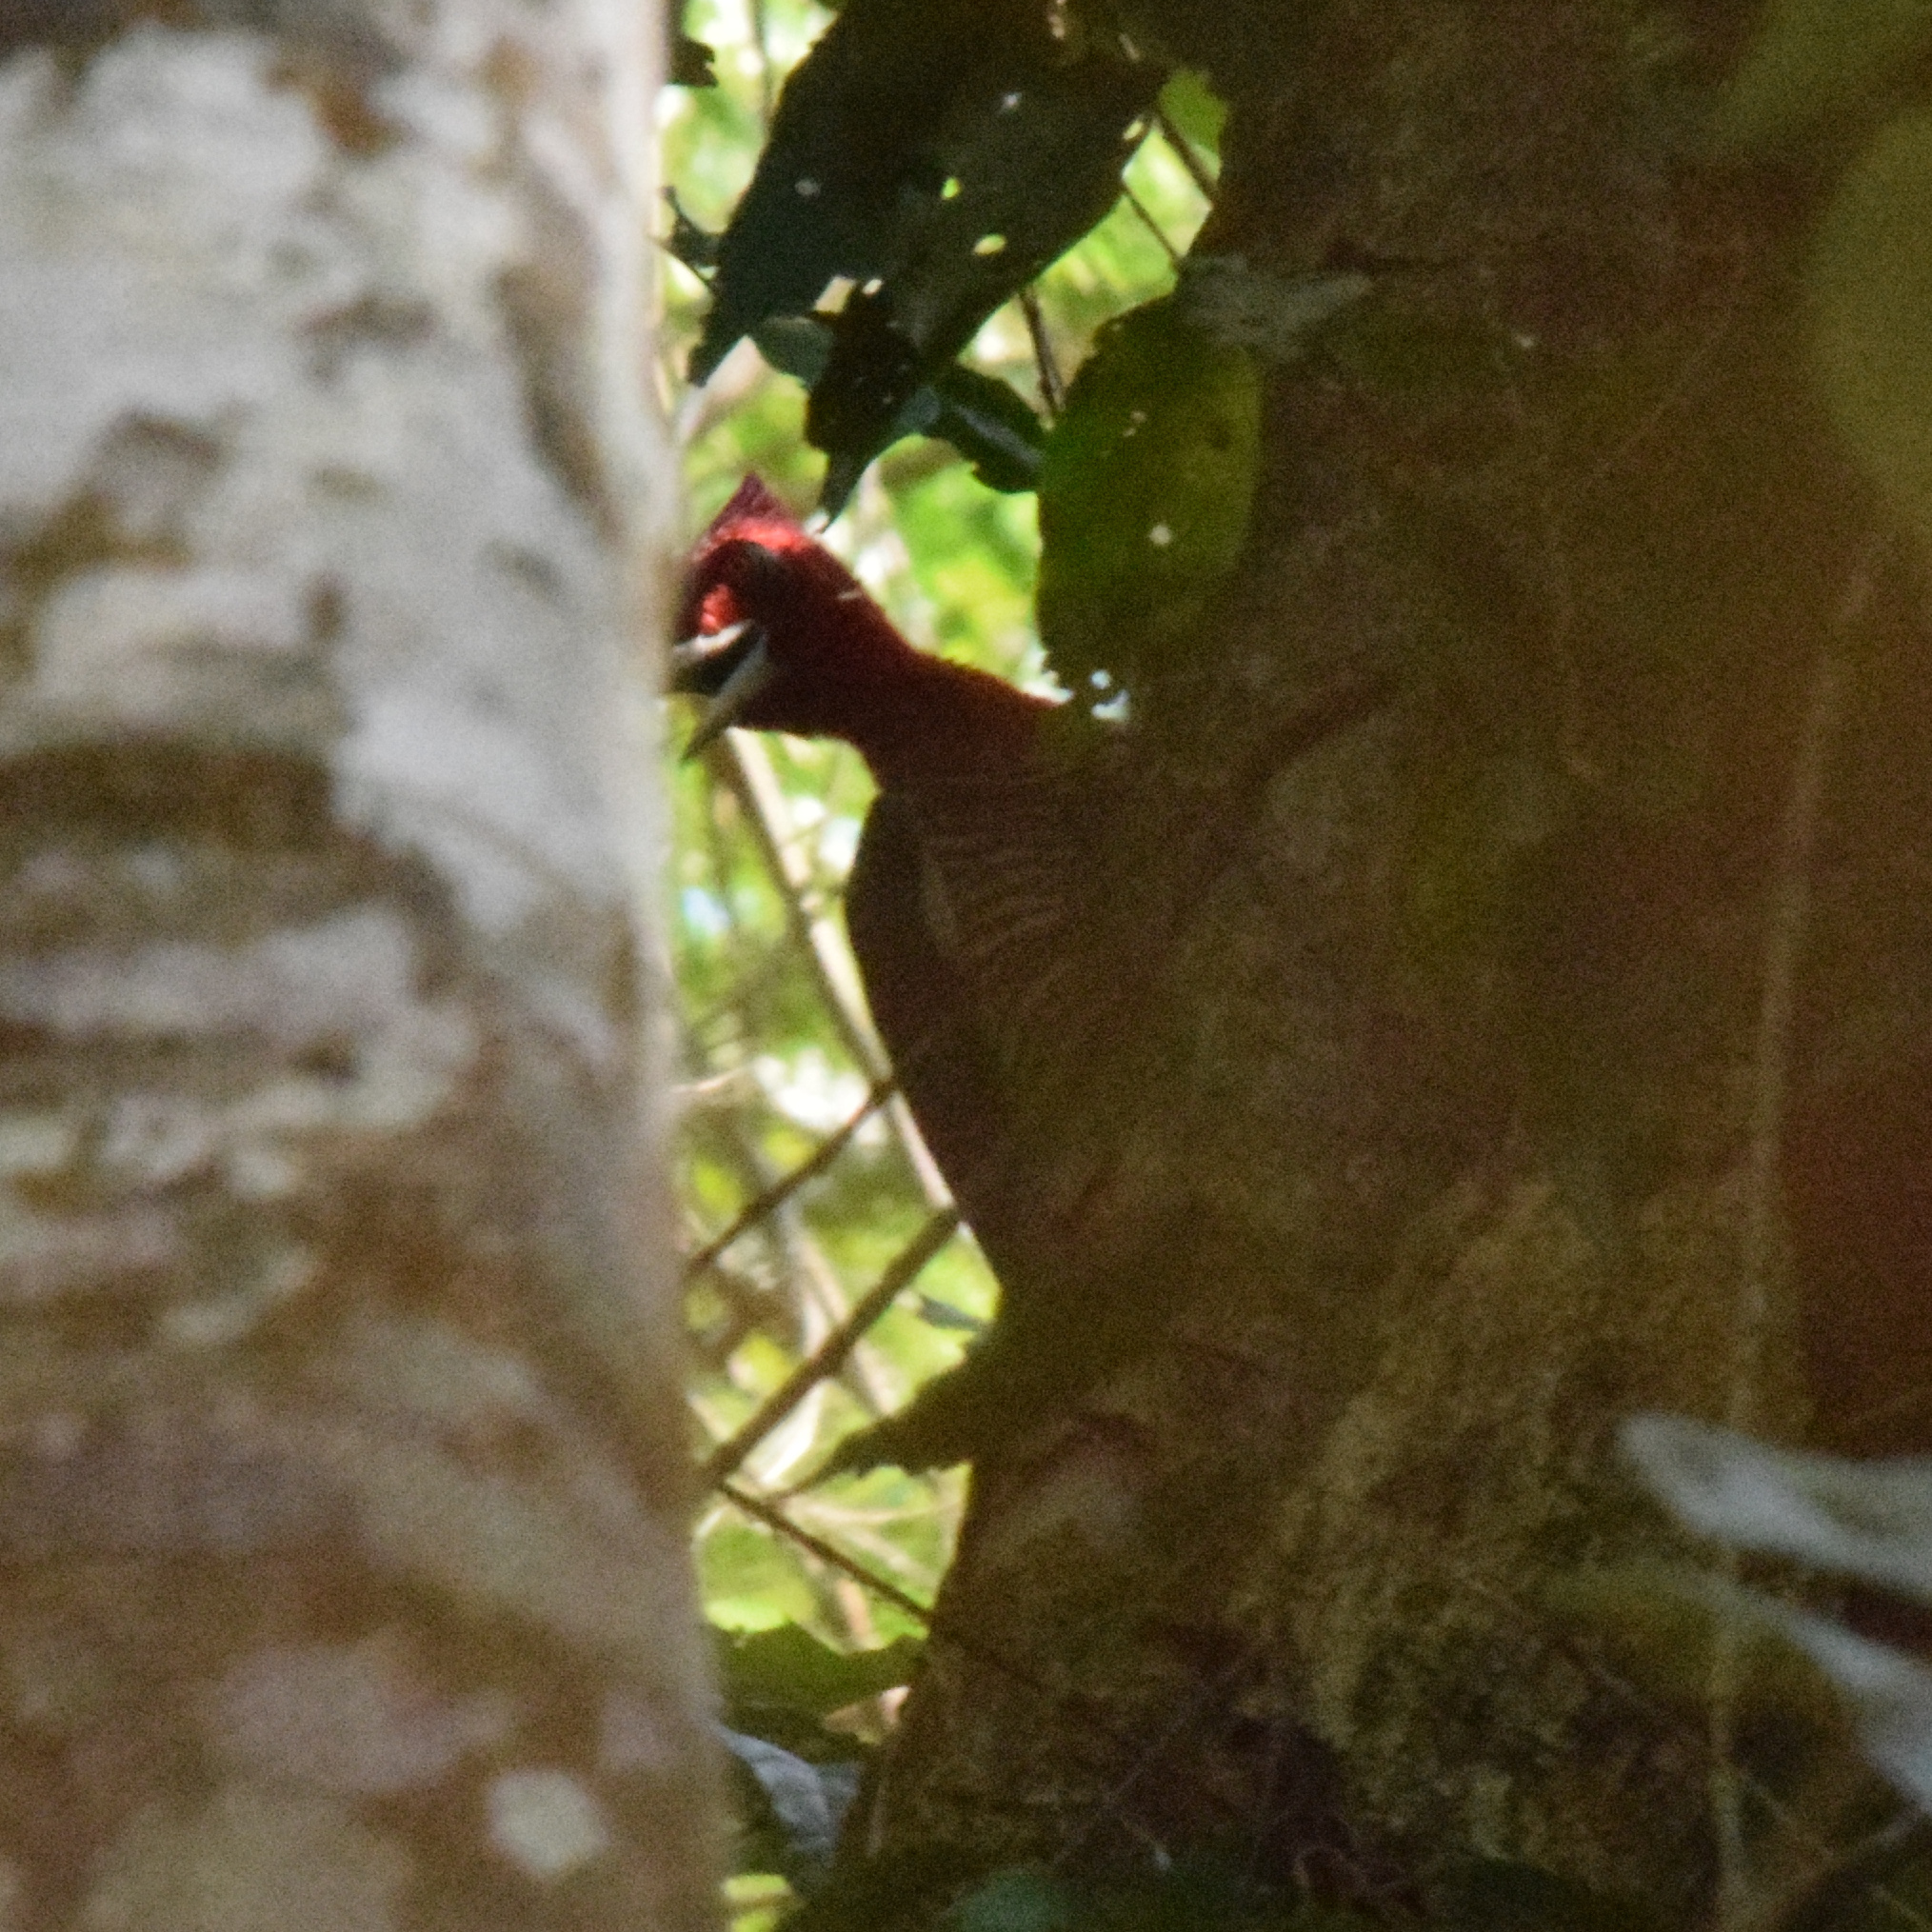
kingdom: Animalia
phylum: Chordata
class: Aves
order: Piciformes
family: Picidae
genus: Campephilus
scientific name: Campephilus robustus
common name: Robust woodpecker
